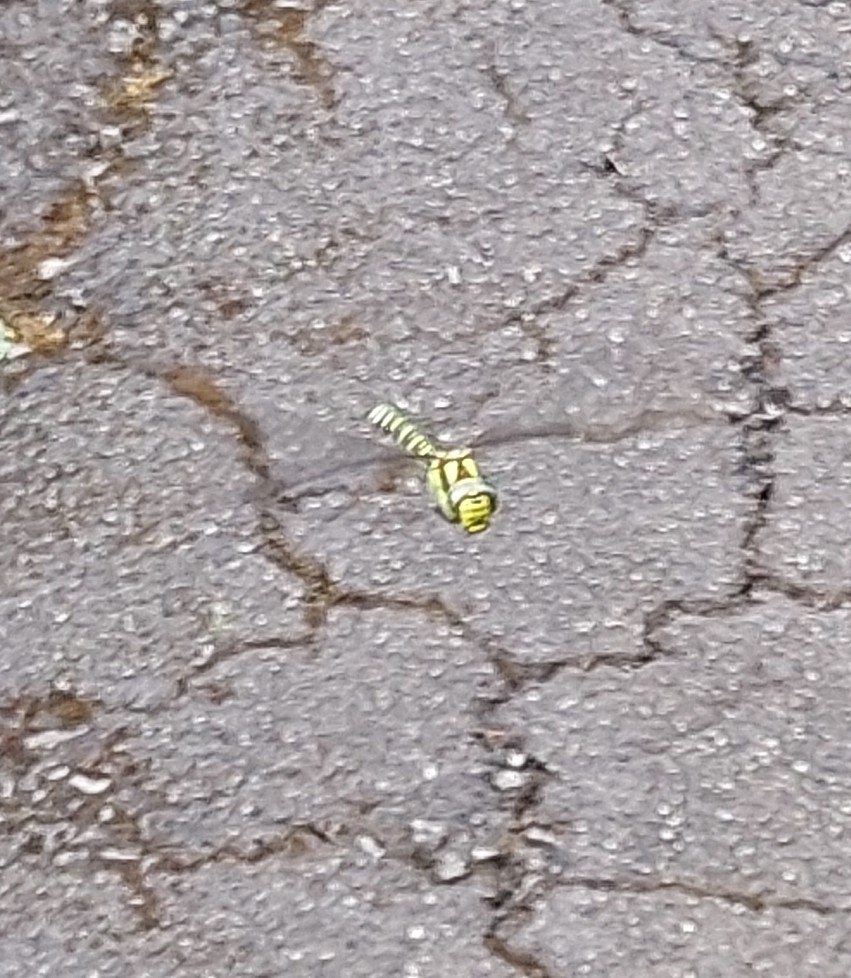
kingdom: Animalia
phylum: Arthropoda
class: Insecta
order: Odonata
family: Aeshnidae
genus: Aeshna
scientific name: Aeshna cyanea
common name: Southern hawker
